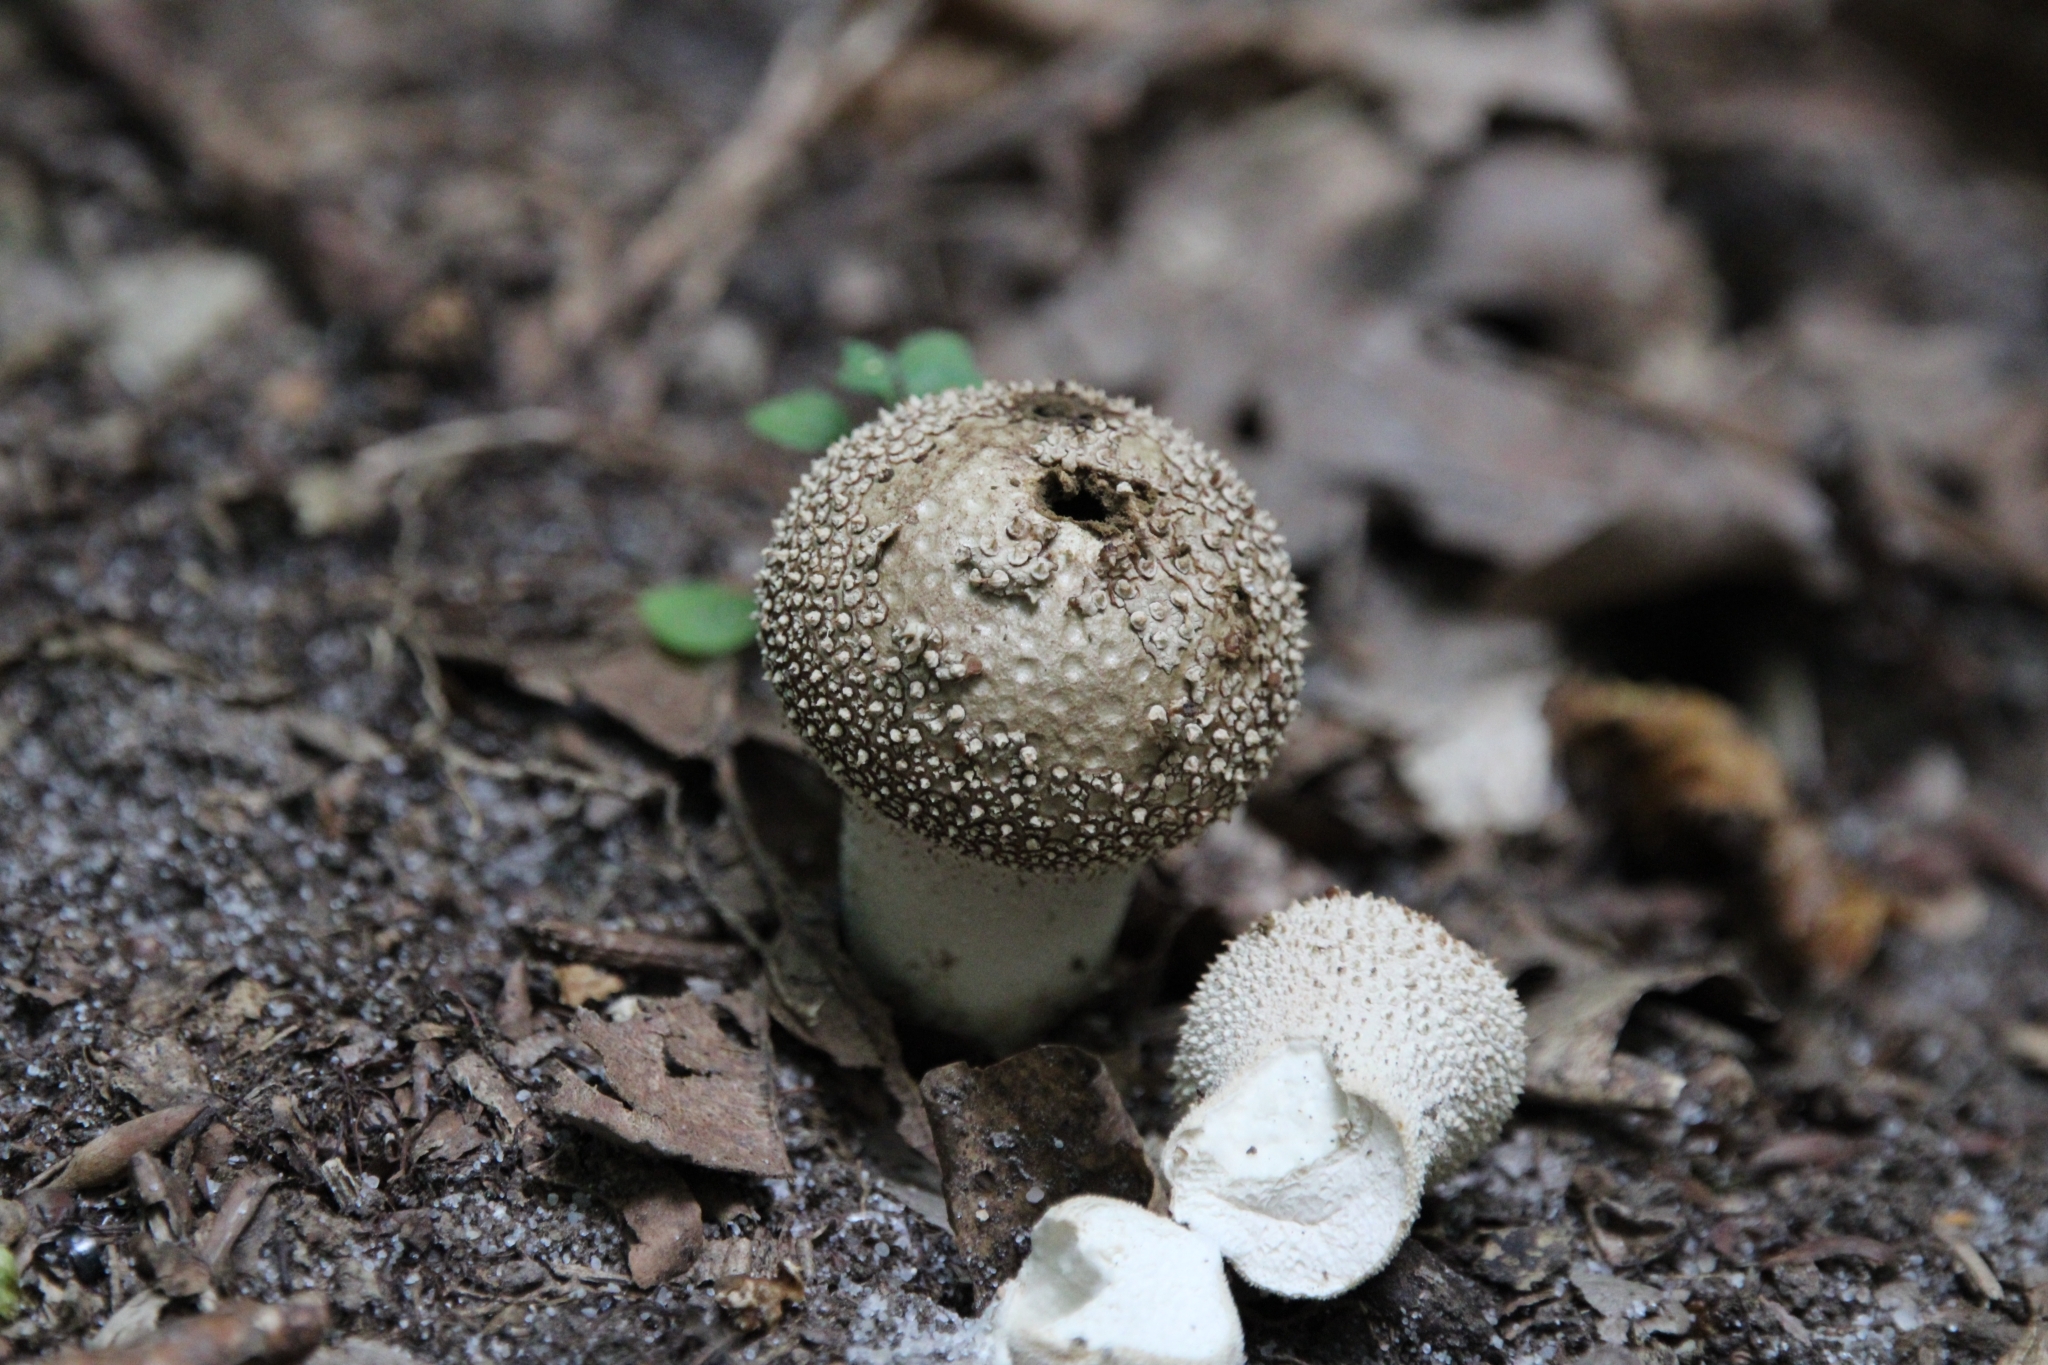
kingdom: Fungi
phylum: Basidiomycota
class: Agaricomycetes
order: Agaricales
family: Lycoperdaceae
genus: Lycoperdon
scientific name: Lycoperdon perlatum
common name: Common puffball
